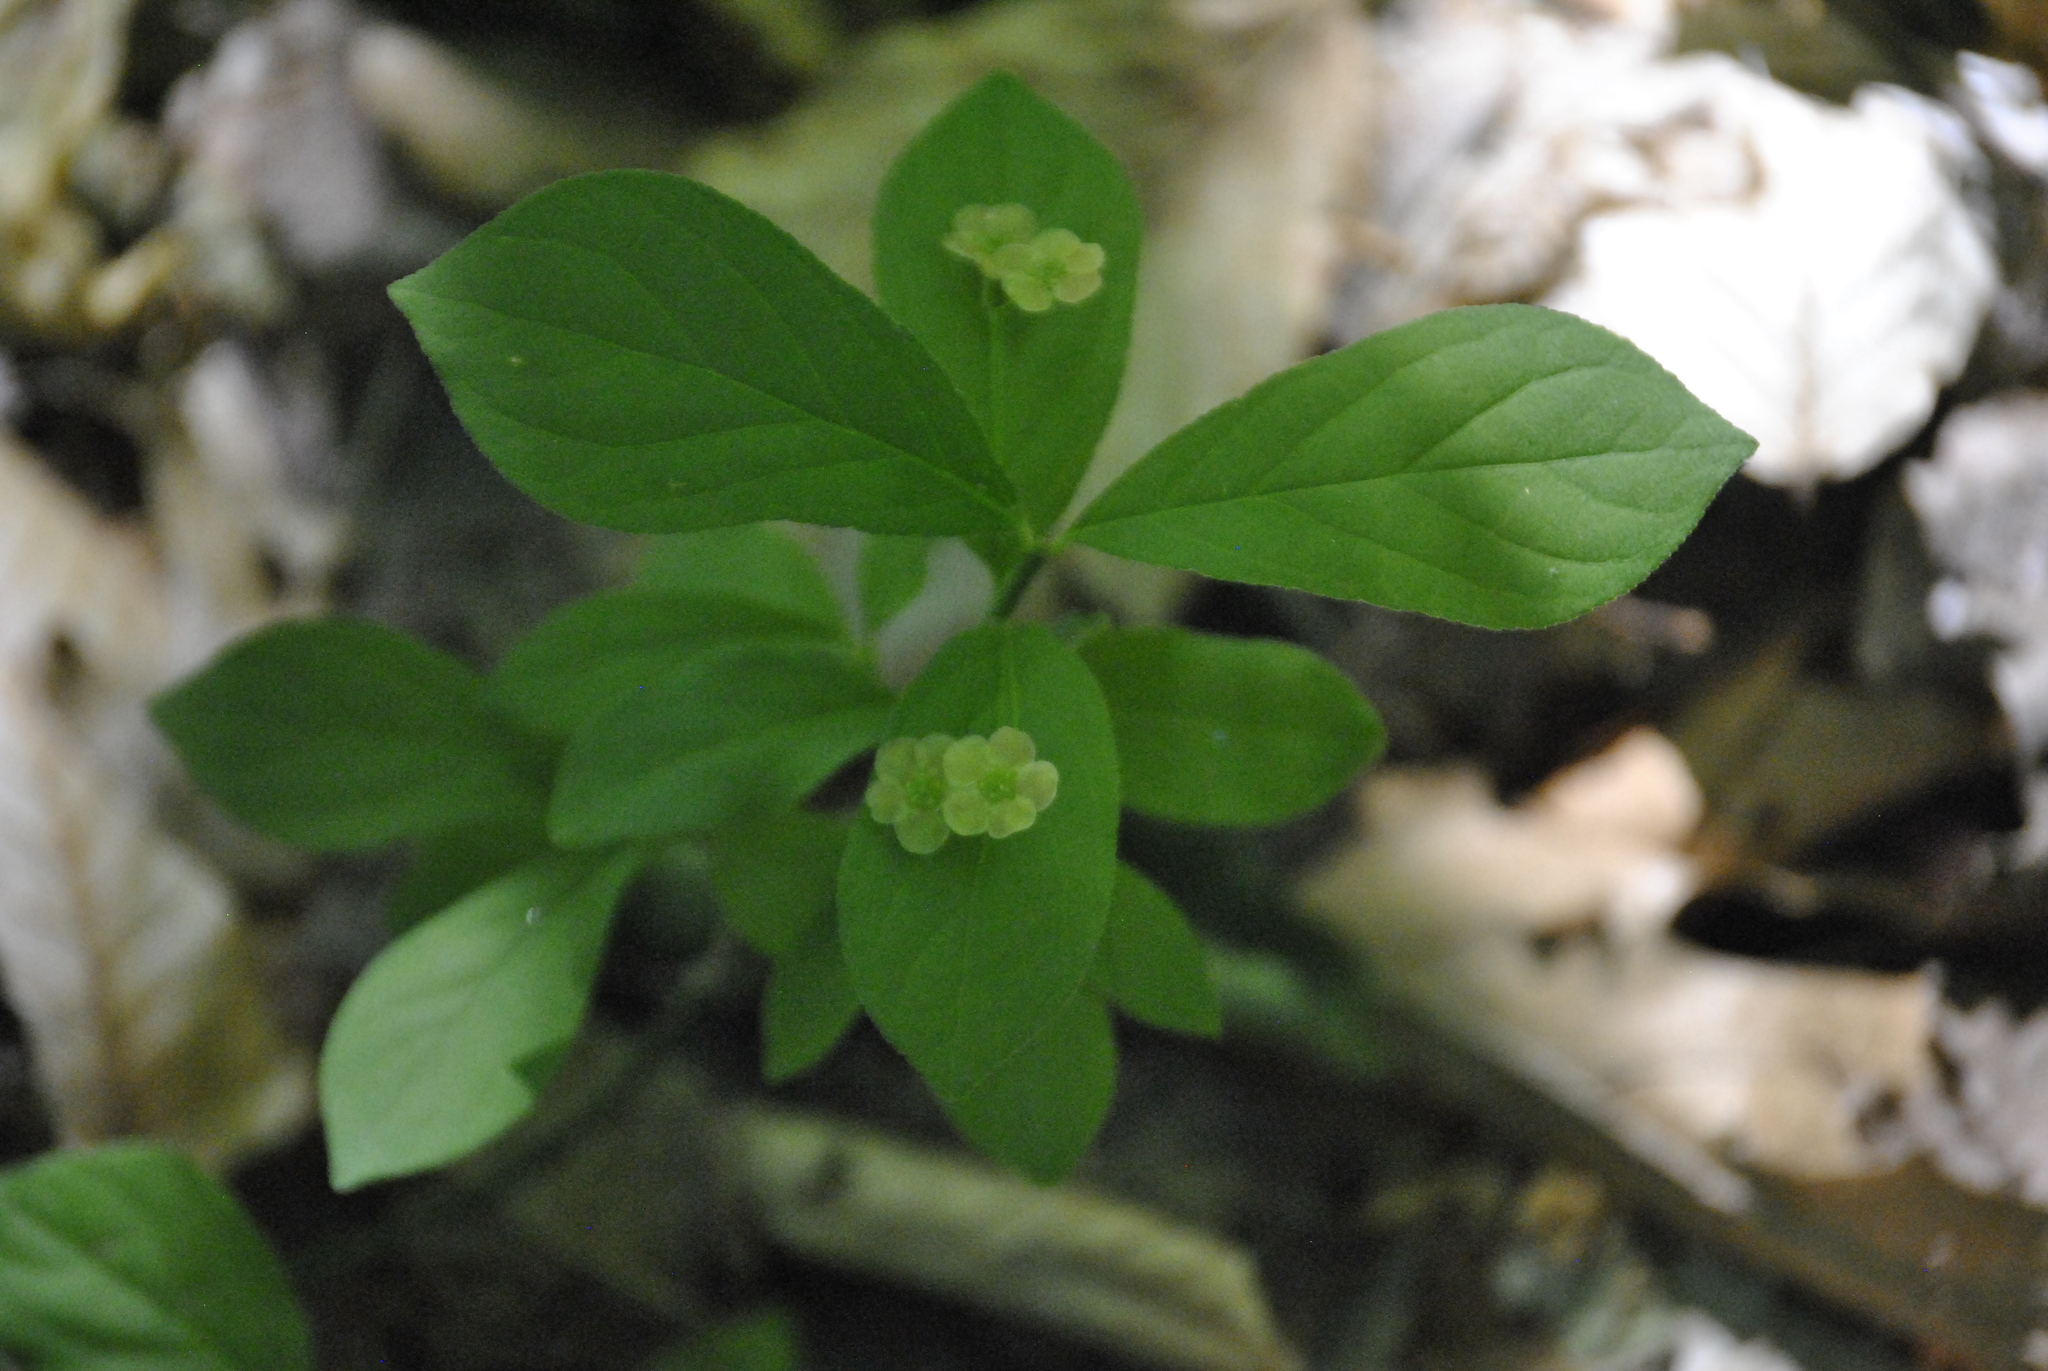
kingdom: Plantae
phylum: Tracheophyta
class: Magnoliopsida
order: Celastrales
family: Celastraceae
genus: Euonymus
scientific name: Euonymus obovatus
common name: Running strawberry-bush
